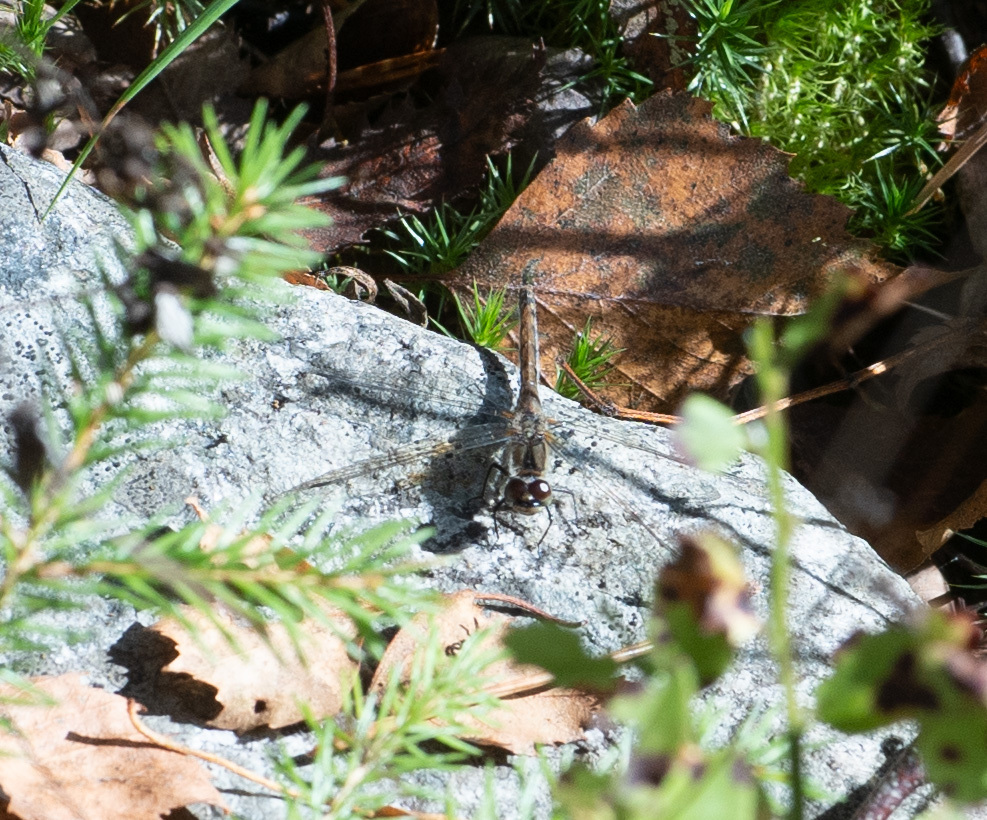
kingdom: Animalia
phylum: Arthropoda
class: Insecta
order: Odonata
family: Libellulidae
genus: Sympetrum
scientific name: Sympetrum danae
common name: Black darter
